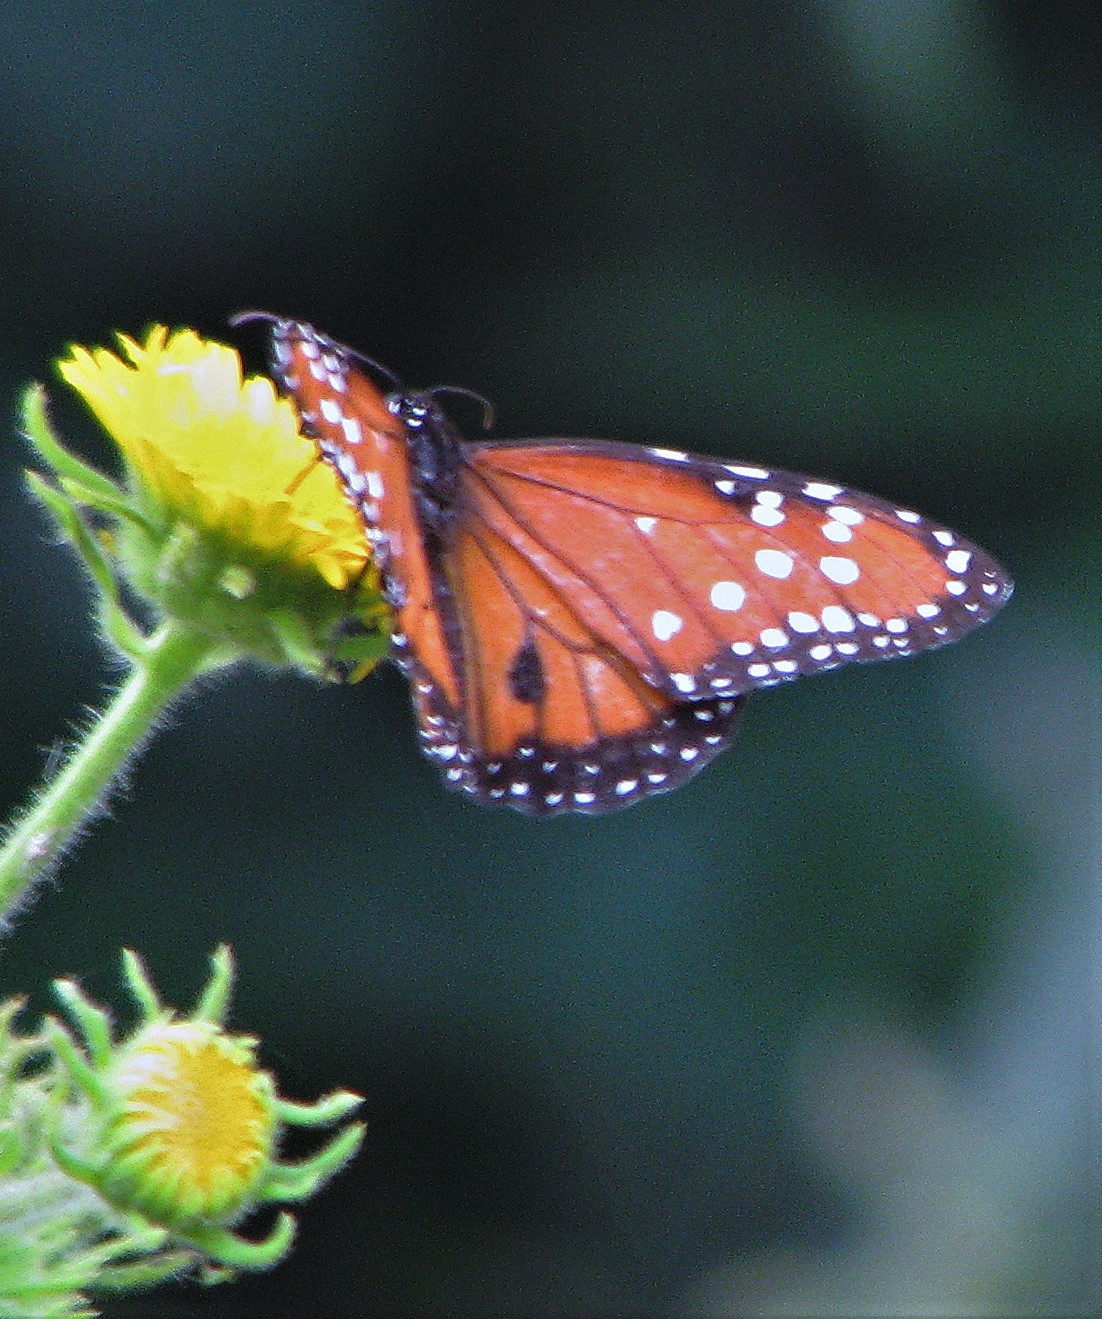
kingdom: Animalia
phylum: Arthropoda
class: Insecta
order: Lepidoptera
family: Nymphalidae
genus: Danaus
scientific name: Danaus gilippus
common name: Queen
